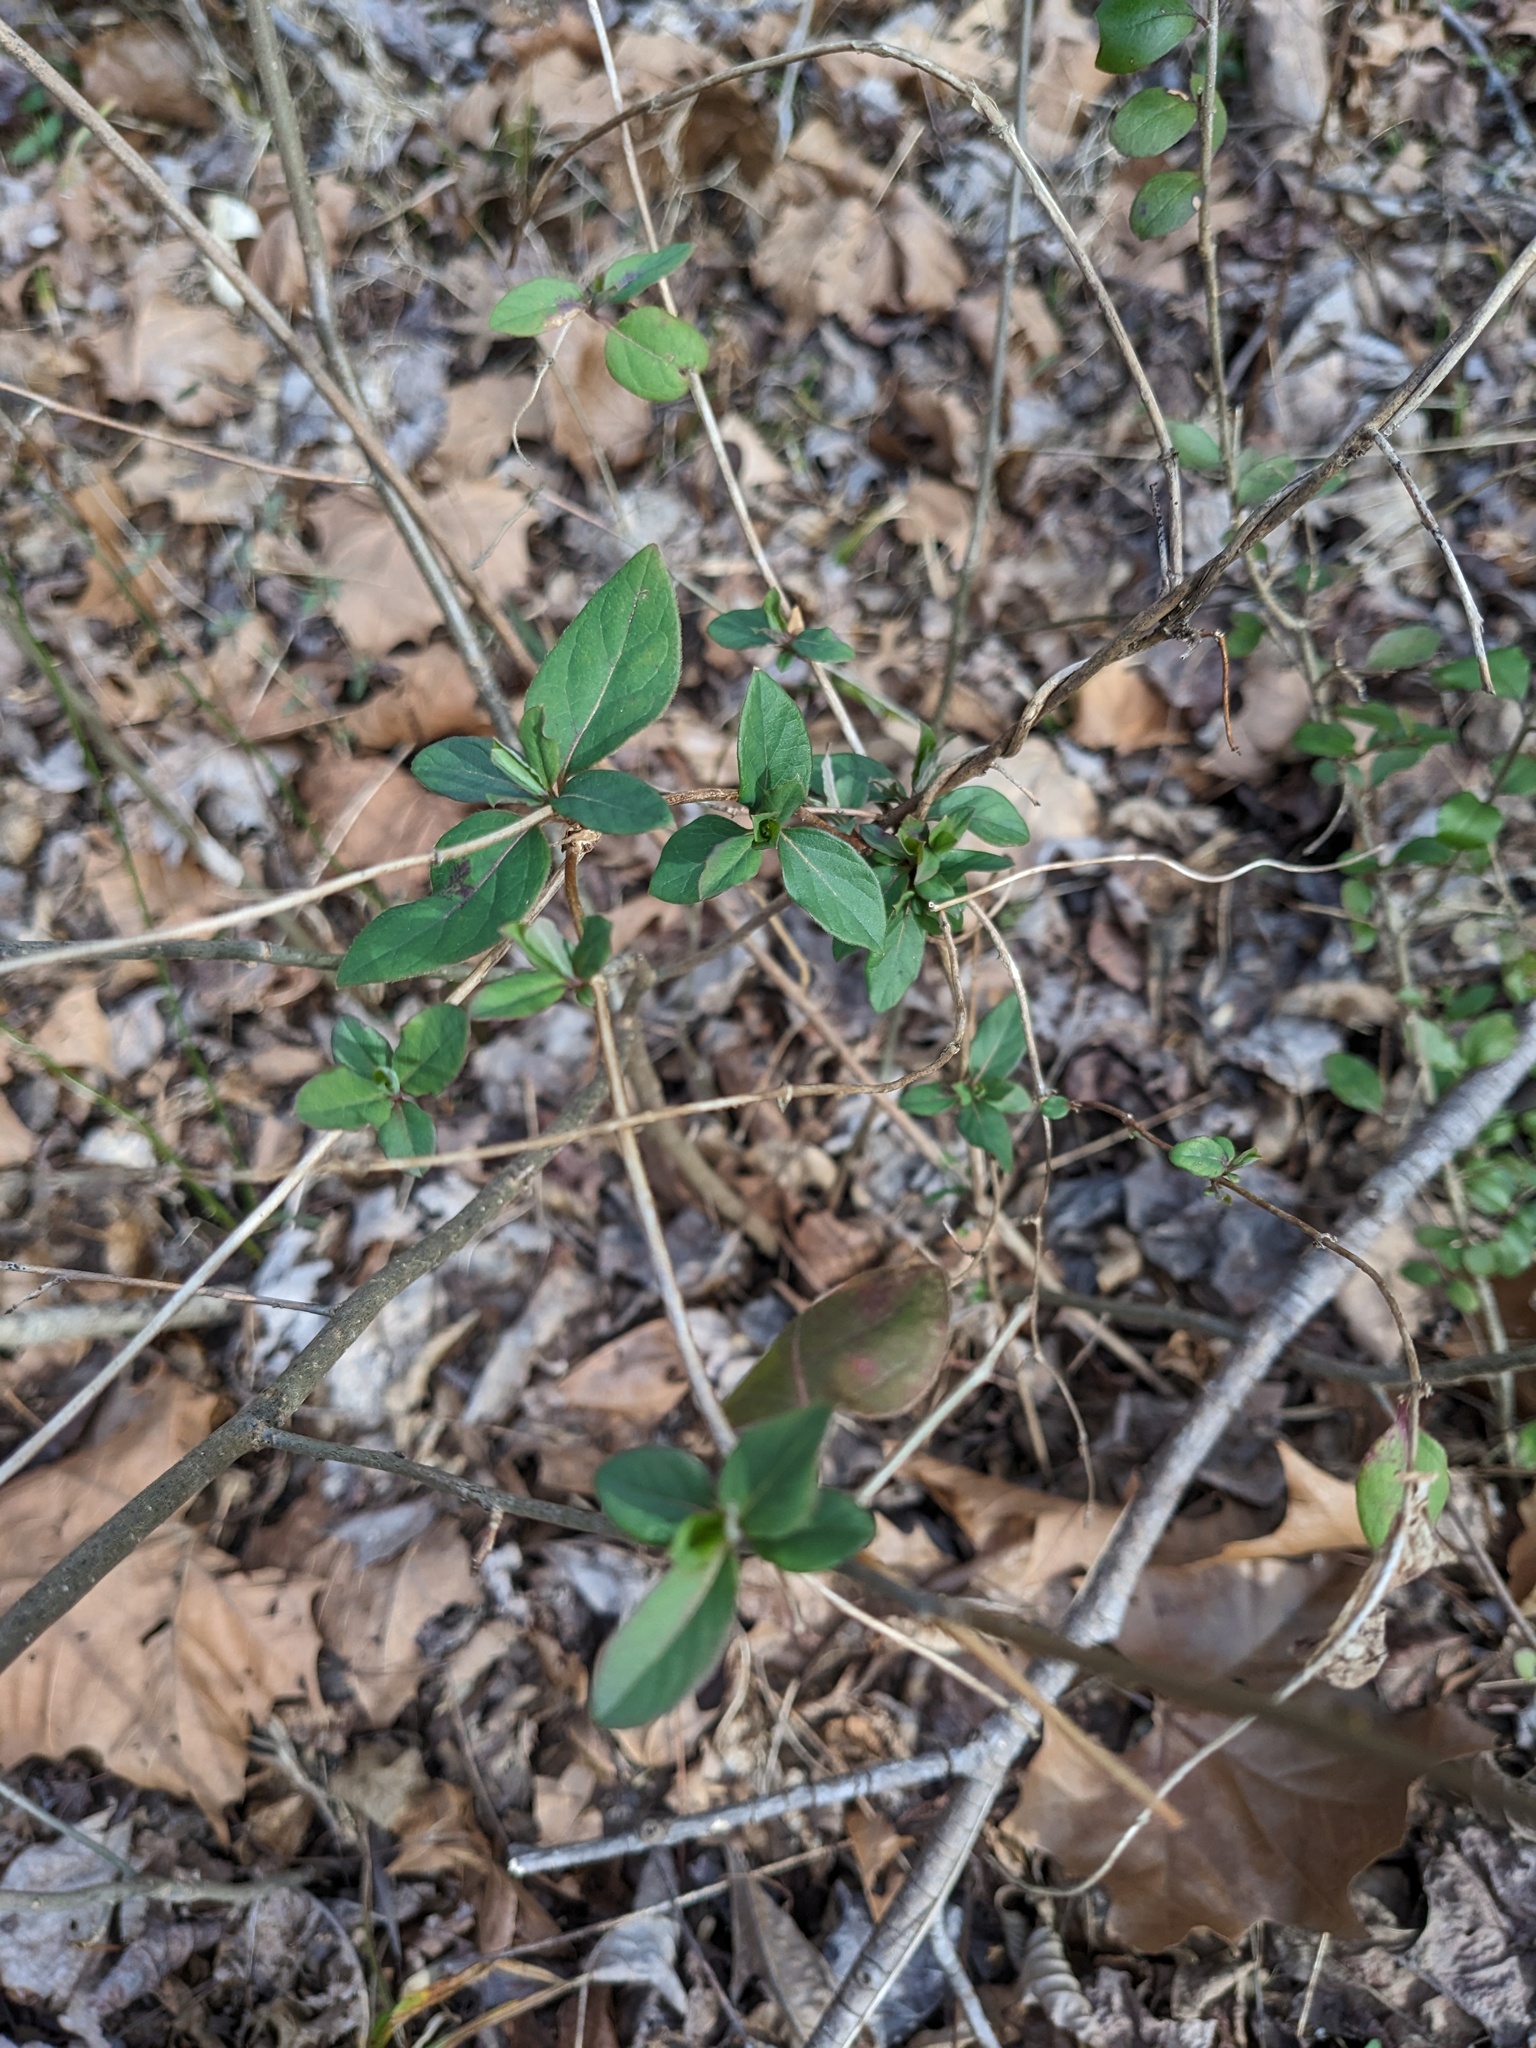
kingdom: Plantae
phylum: Tracheophyta
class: Magnoliopsida
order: Dipsacales
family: Caprifoliaceae
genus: Lonicera
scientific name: Lonicera japonica
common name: Japanese honeysuckle
